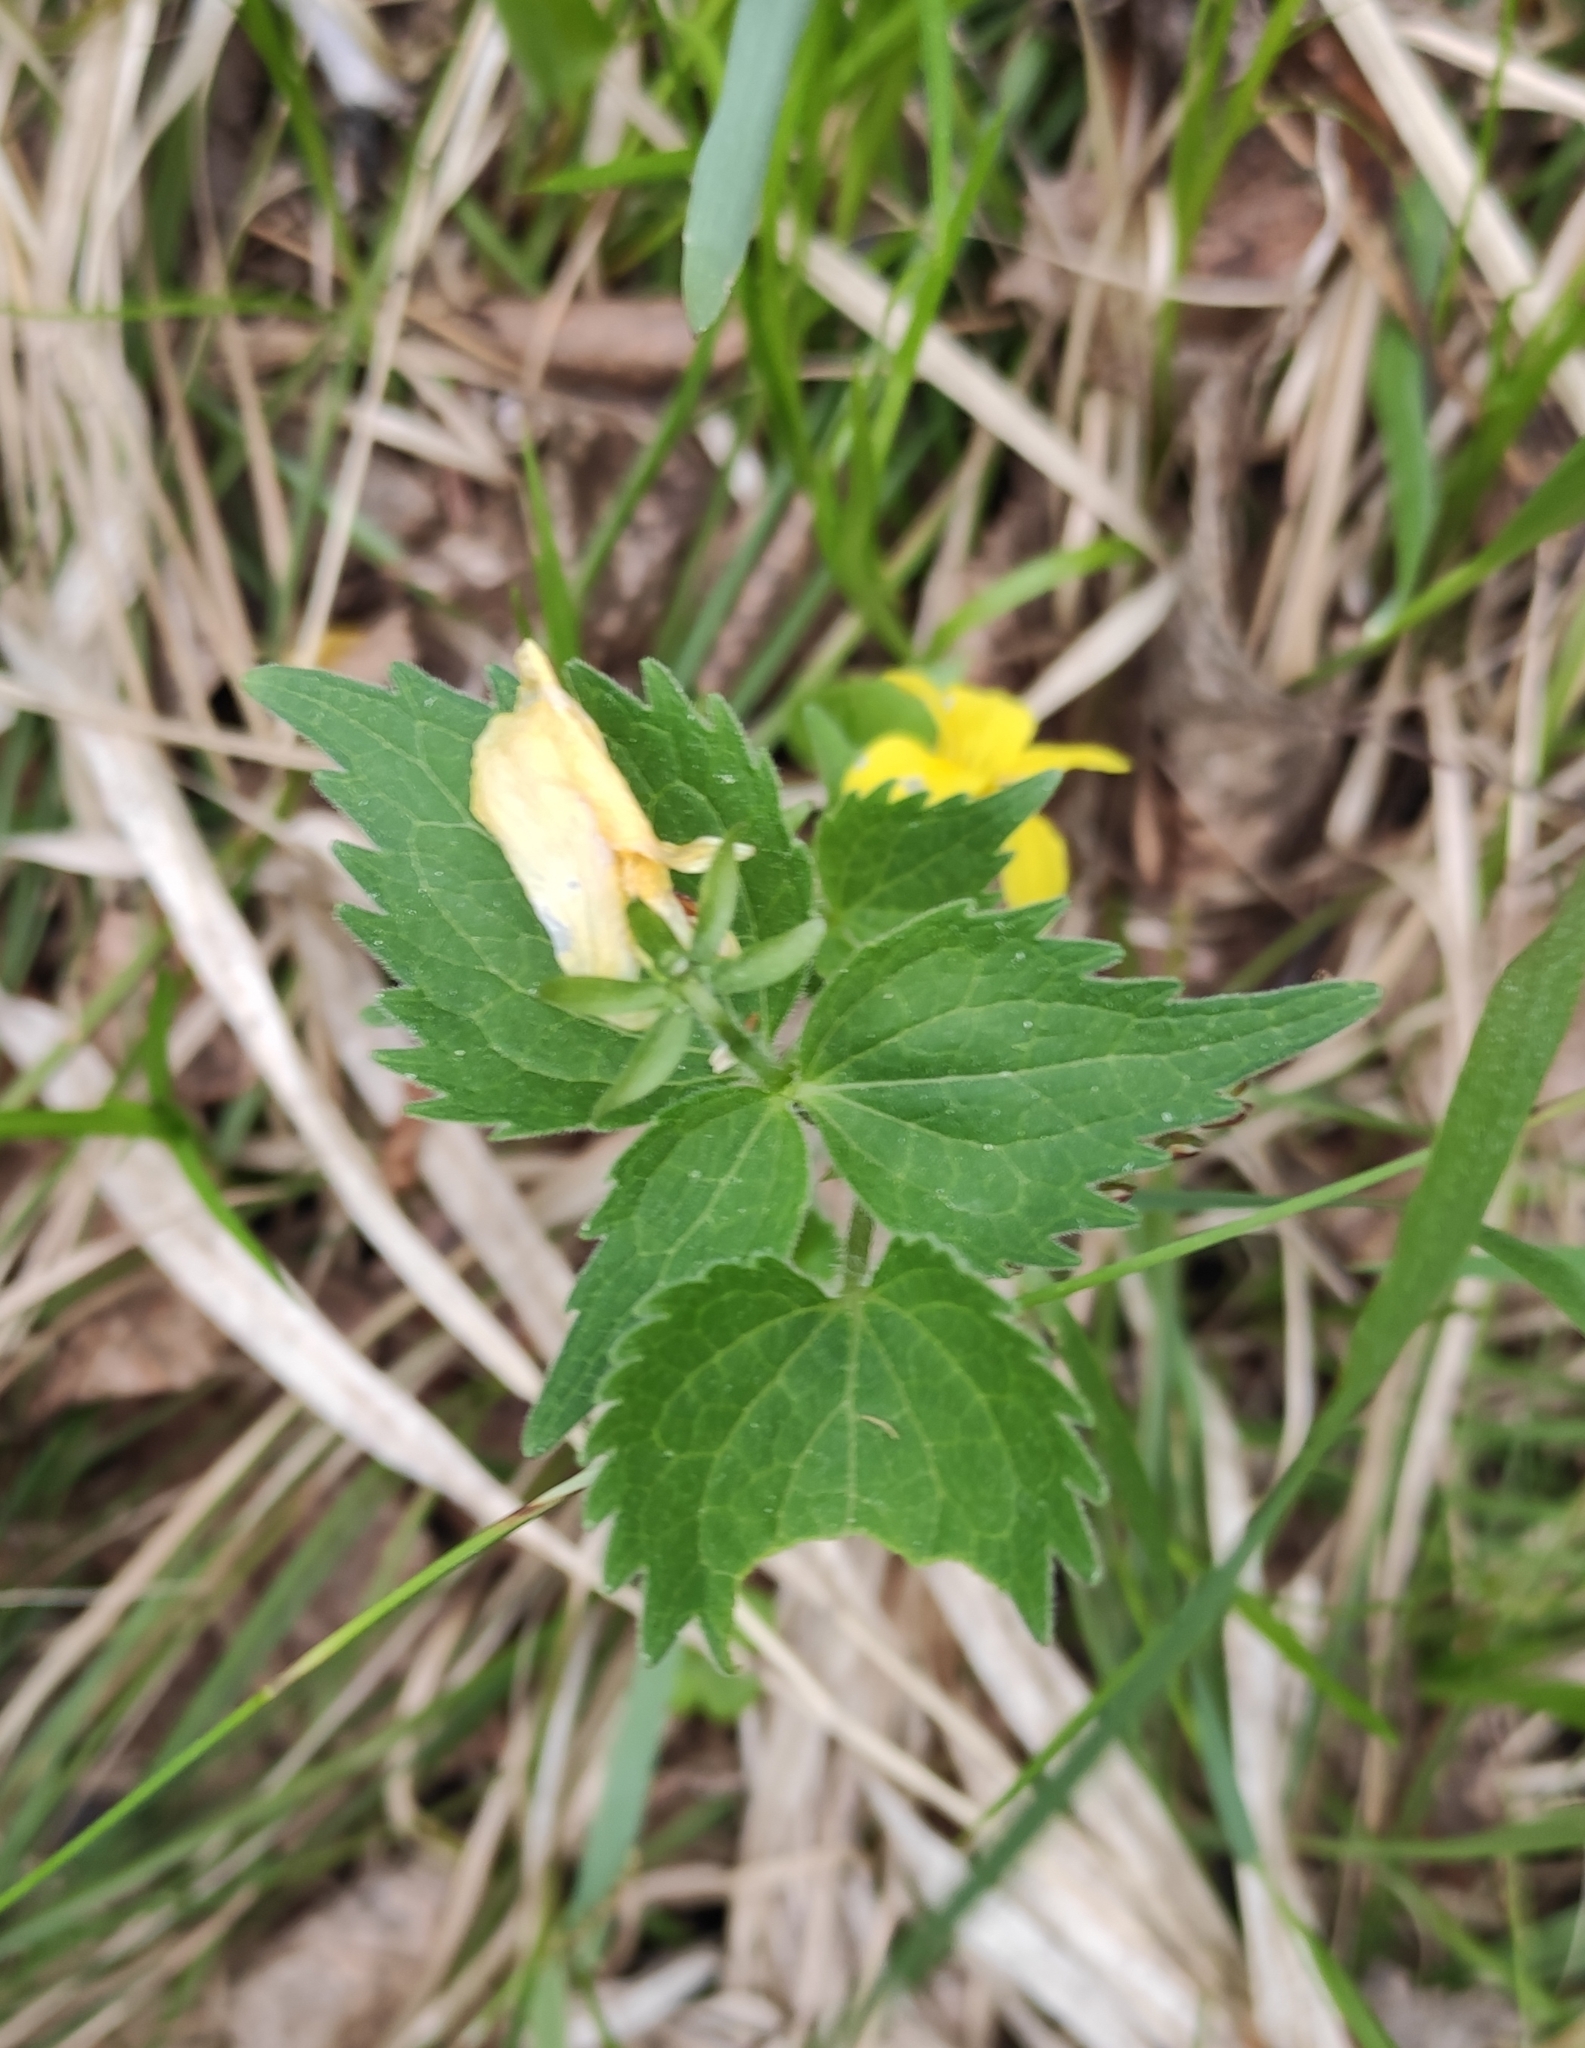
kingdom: Plantae
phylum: Tracheophyta
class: Magnoliopsida
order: Malpighiales
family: Violaceae
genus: Viola
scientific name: Viola uniflora
